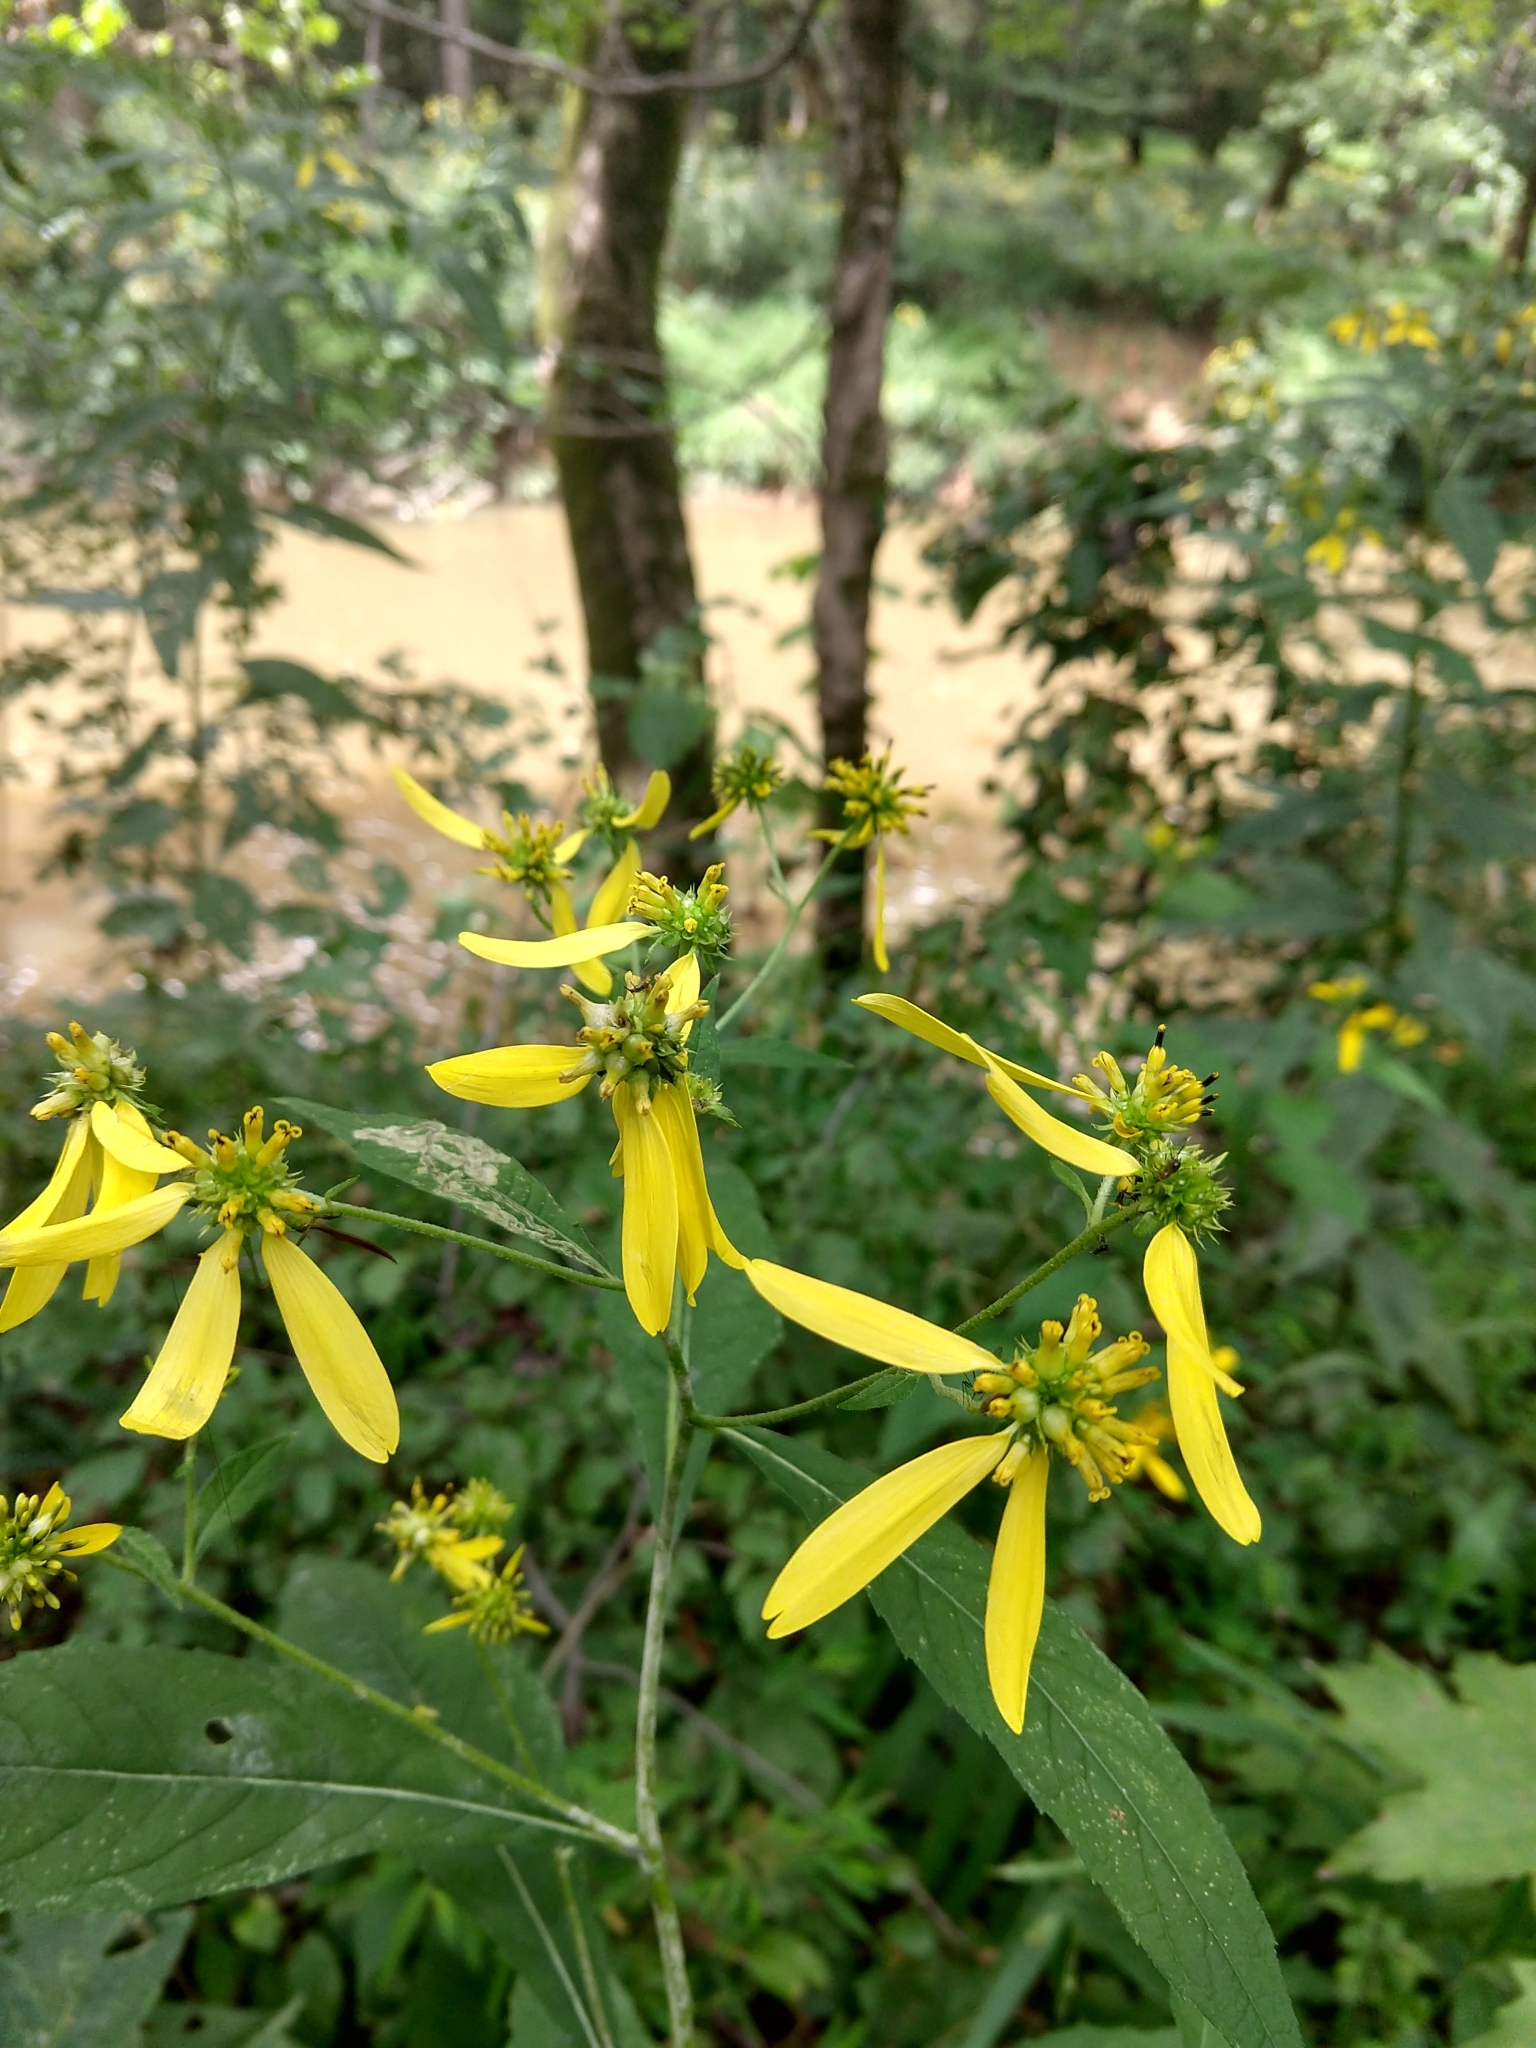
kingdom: Plantae
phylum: Tracheophyta
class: Magnoliopsida
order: Asterales
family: Asteraceae
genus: Verbesina
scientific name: Verbesina alternifolia
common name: Wingstem
